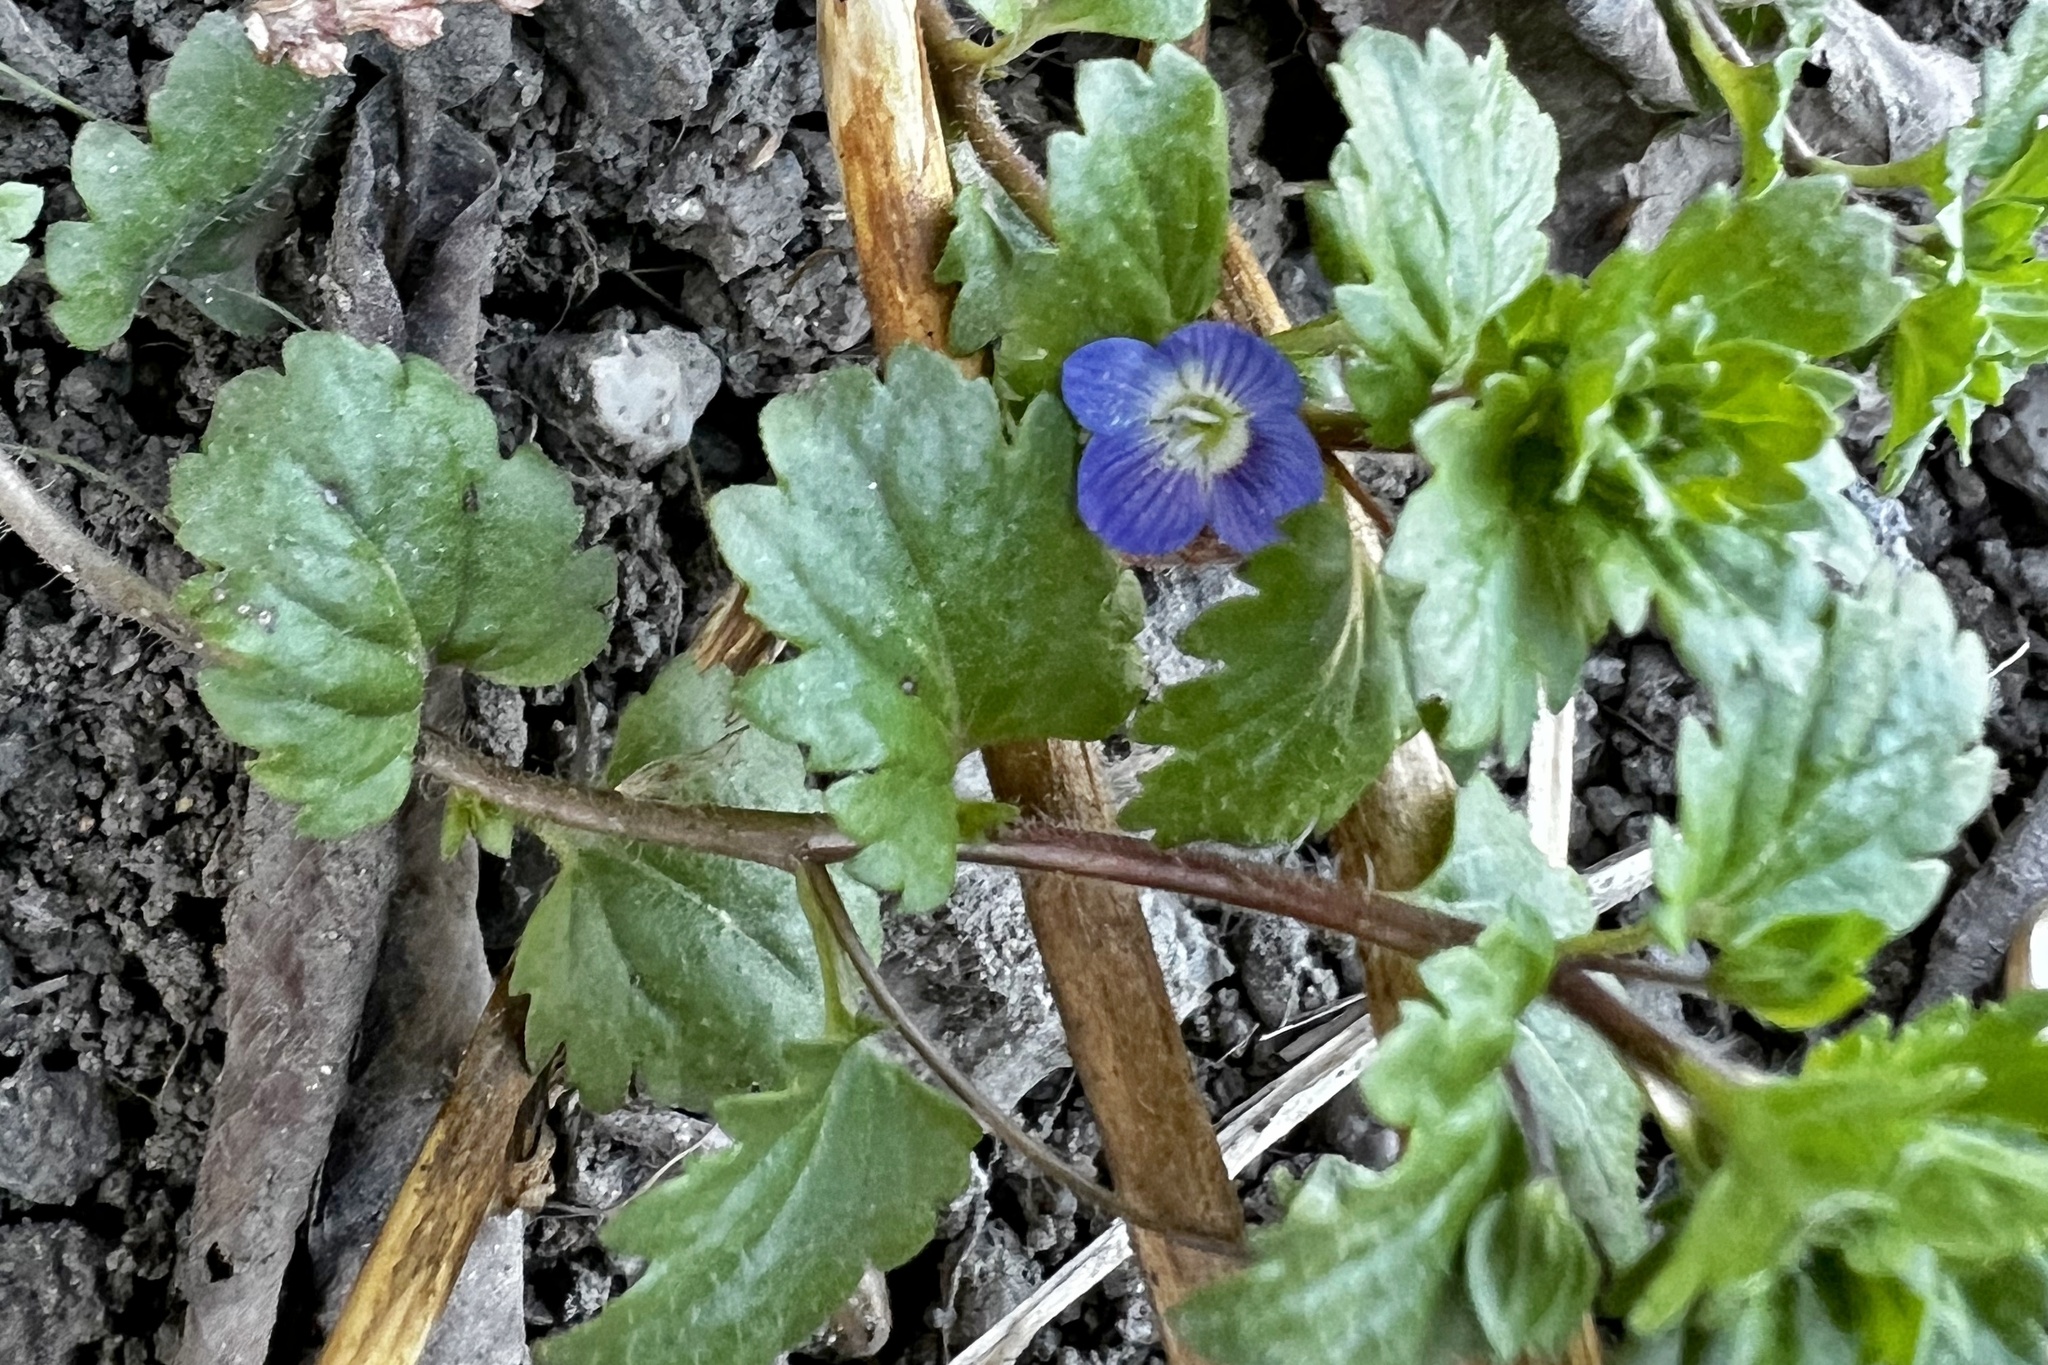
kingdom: Plantae
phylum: Tracheophyta
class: Magnoliopsida
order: Lamiales
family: Plantaginaceae
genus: Veronica
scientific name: Veronica persica
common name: Common field-speedwell
